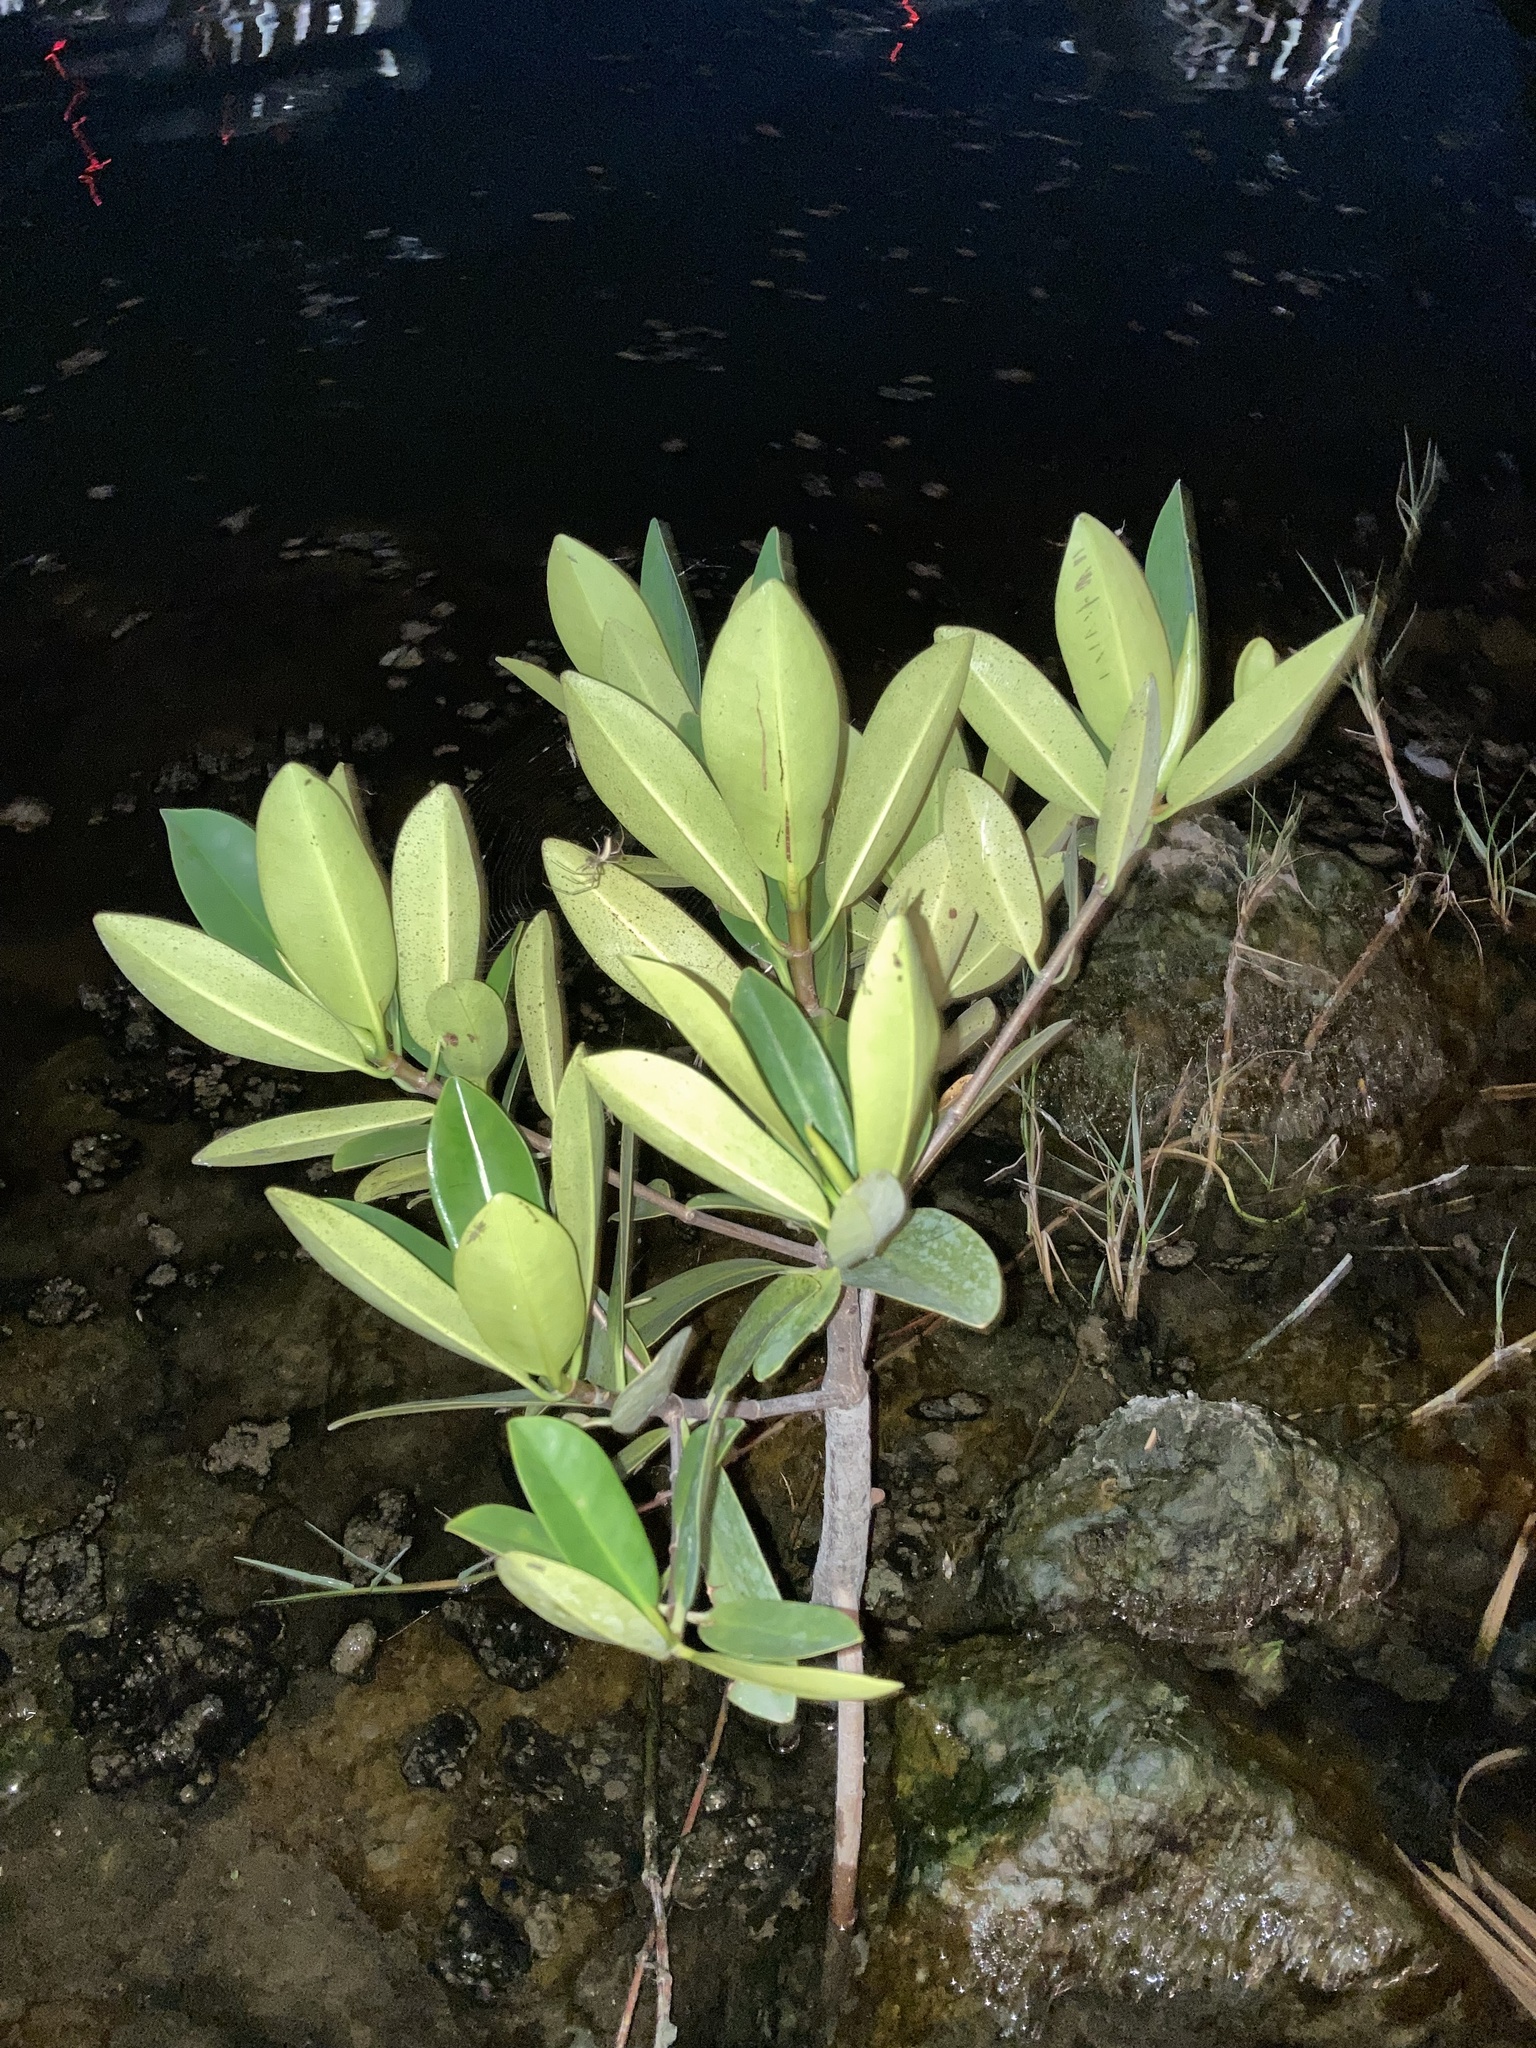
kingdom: Plantae
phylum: Tracheophyta
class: Magnoliopsida
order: Malpighiales
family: Rhizophoraceae
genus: Rhizophora
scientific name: Rhizophora mangle
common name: Red mangrove
